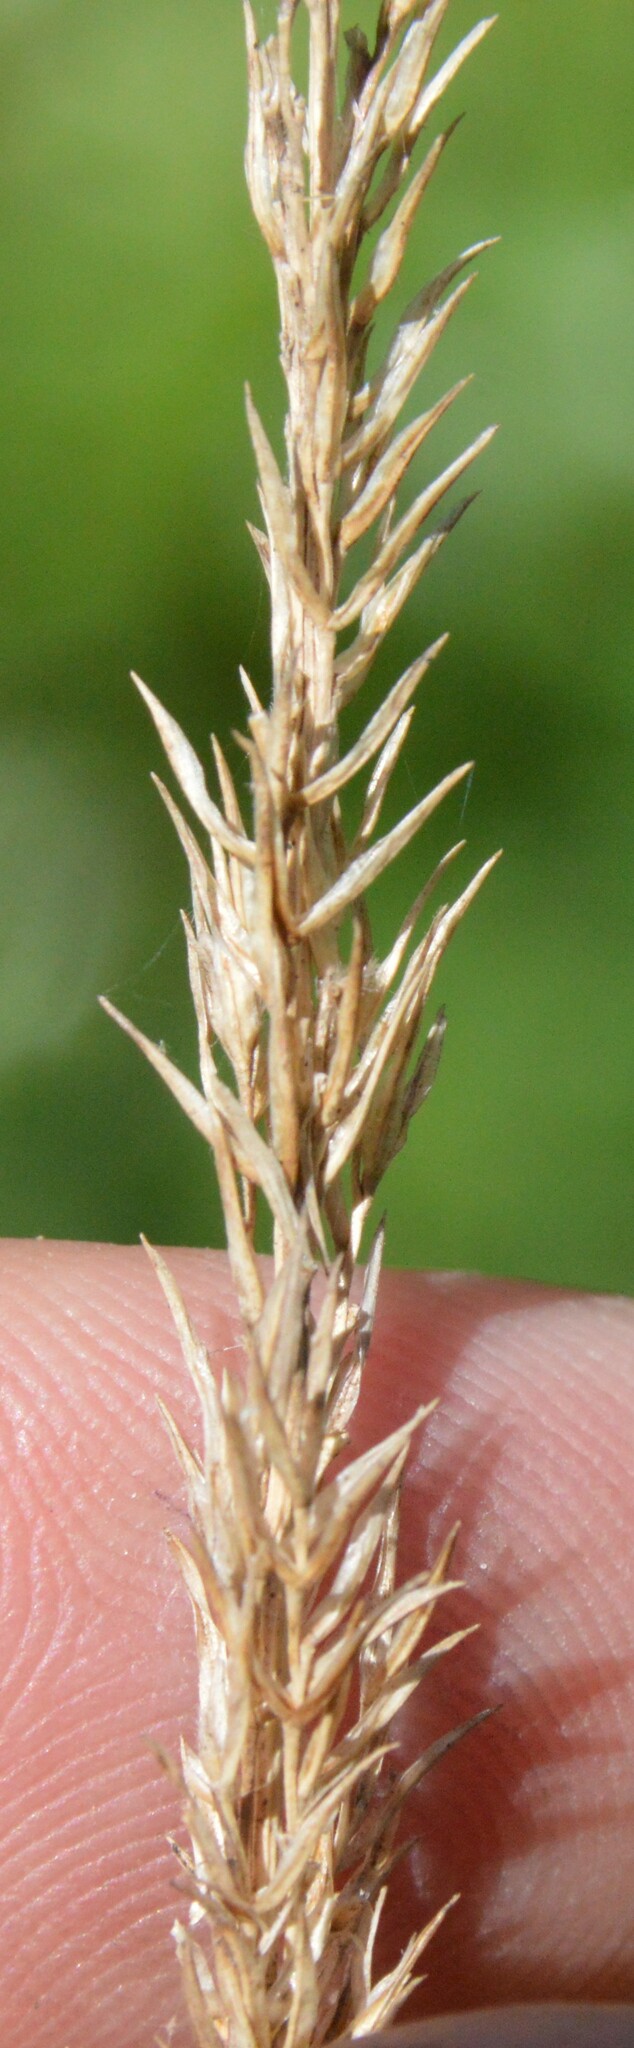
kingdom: Plantae
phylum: Tracheophyta
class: Liliopsida
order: Poales
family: Poaceae
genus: Tridens
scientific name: Tridens strictus
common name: Long-spike tridens
